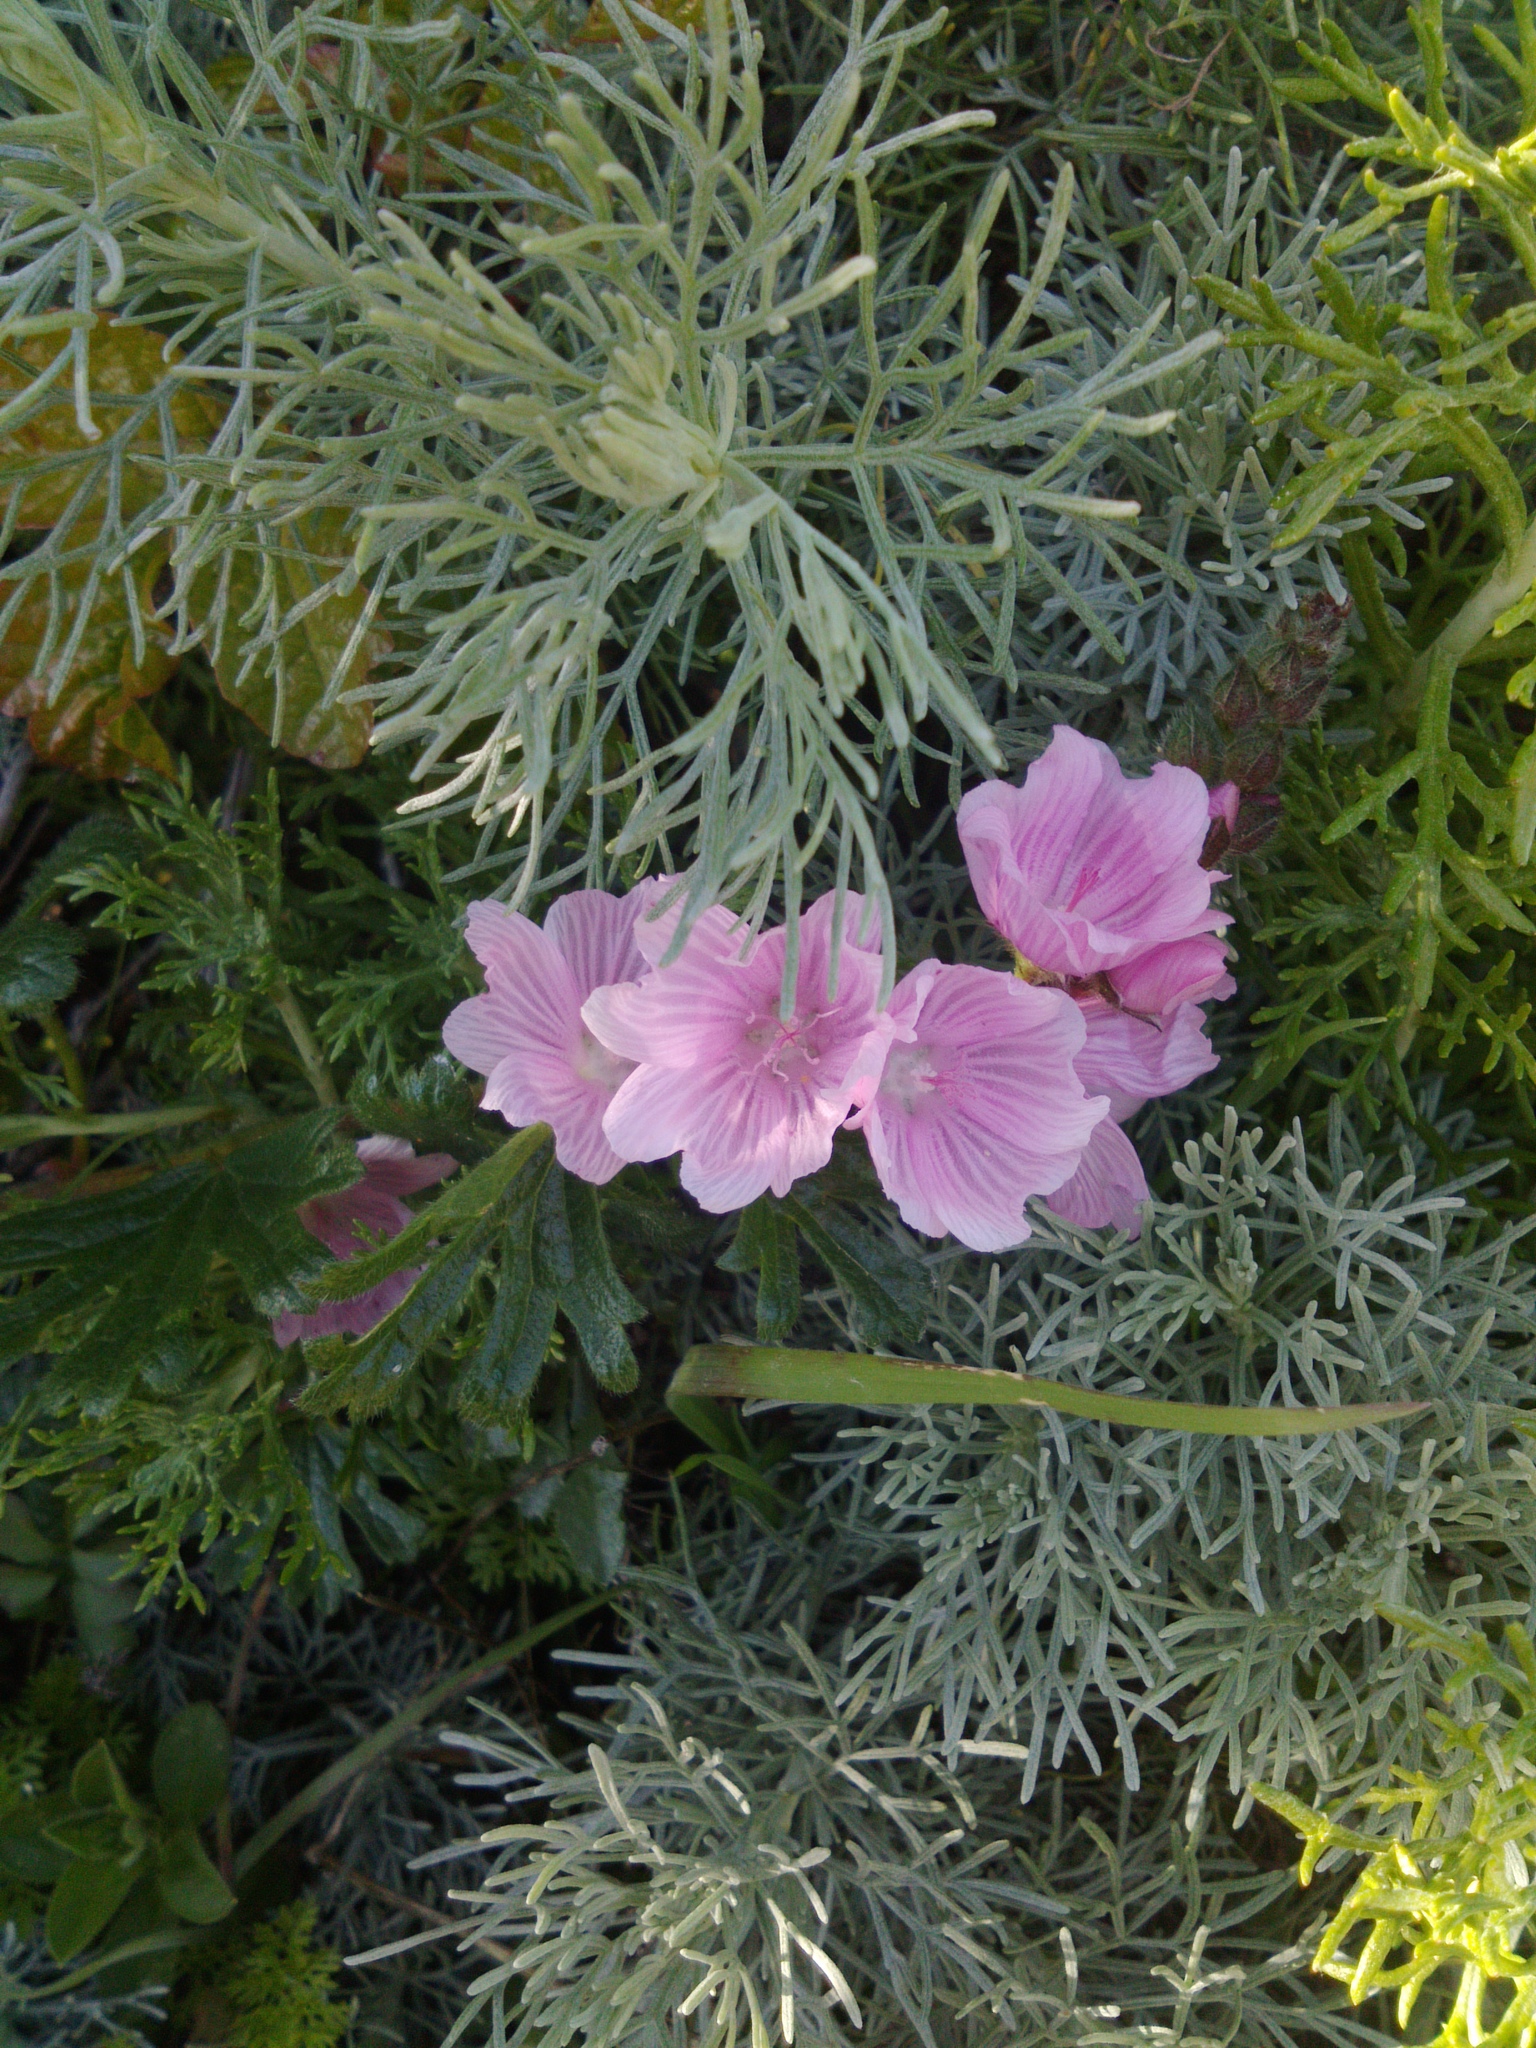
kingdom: Plantae
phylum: Tracheophyta
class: Magnoliopsida
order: Malvales
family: Malvaceae
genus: Sidalcea
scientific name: Sidalcea malviflora
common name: Greek mallow
